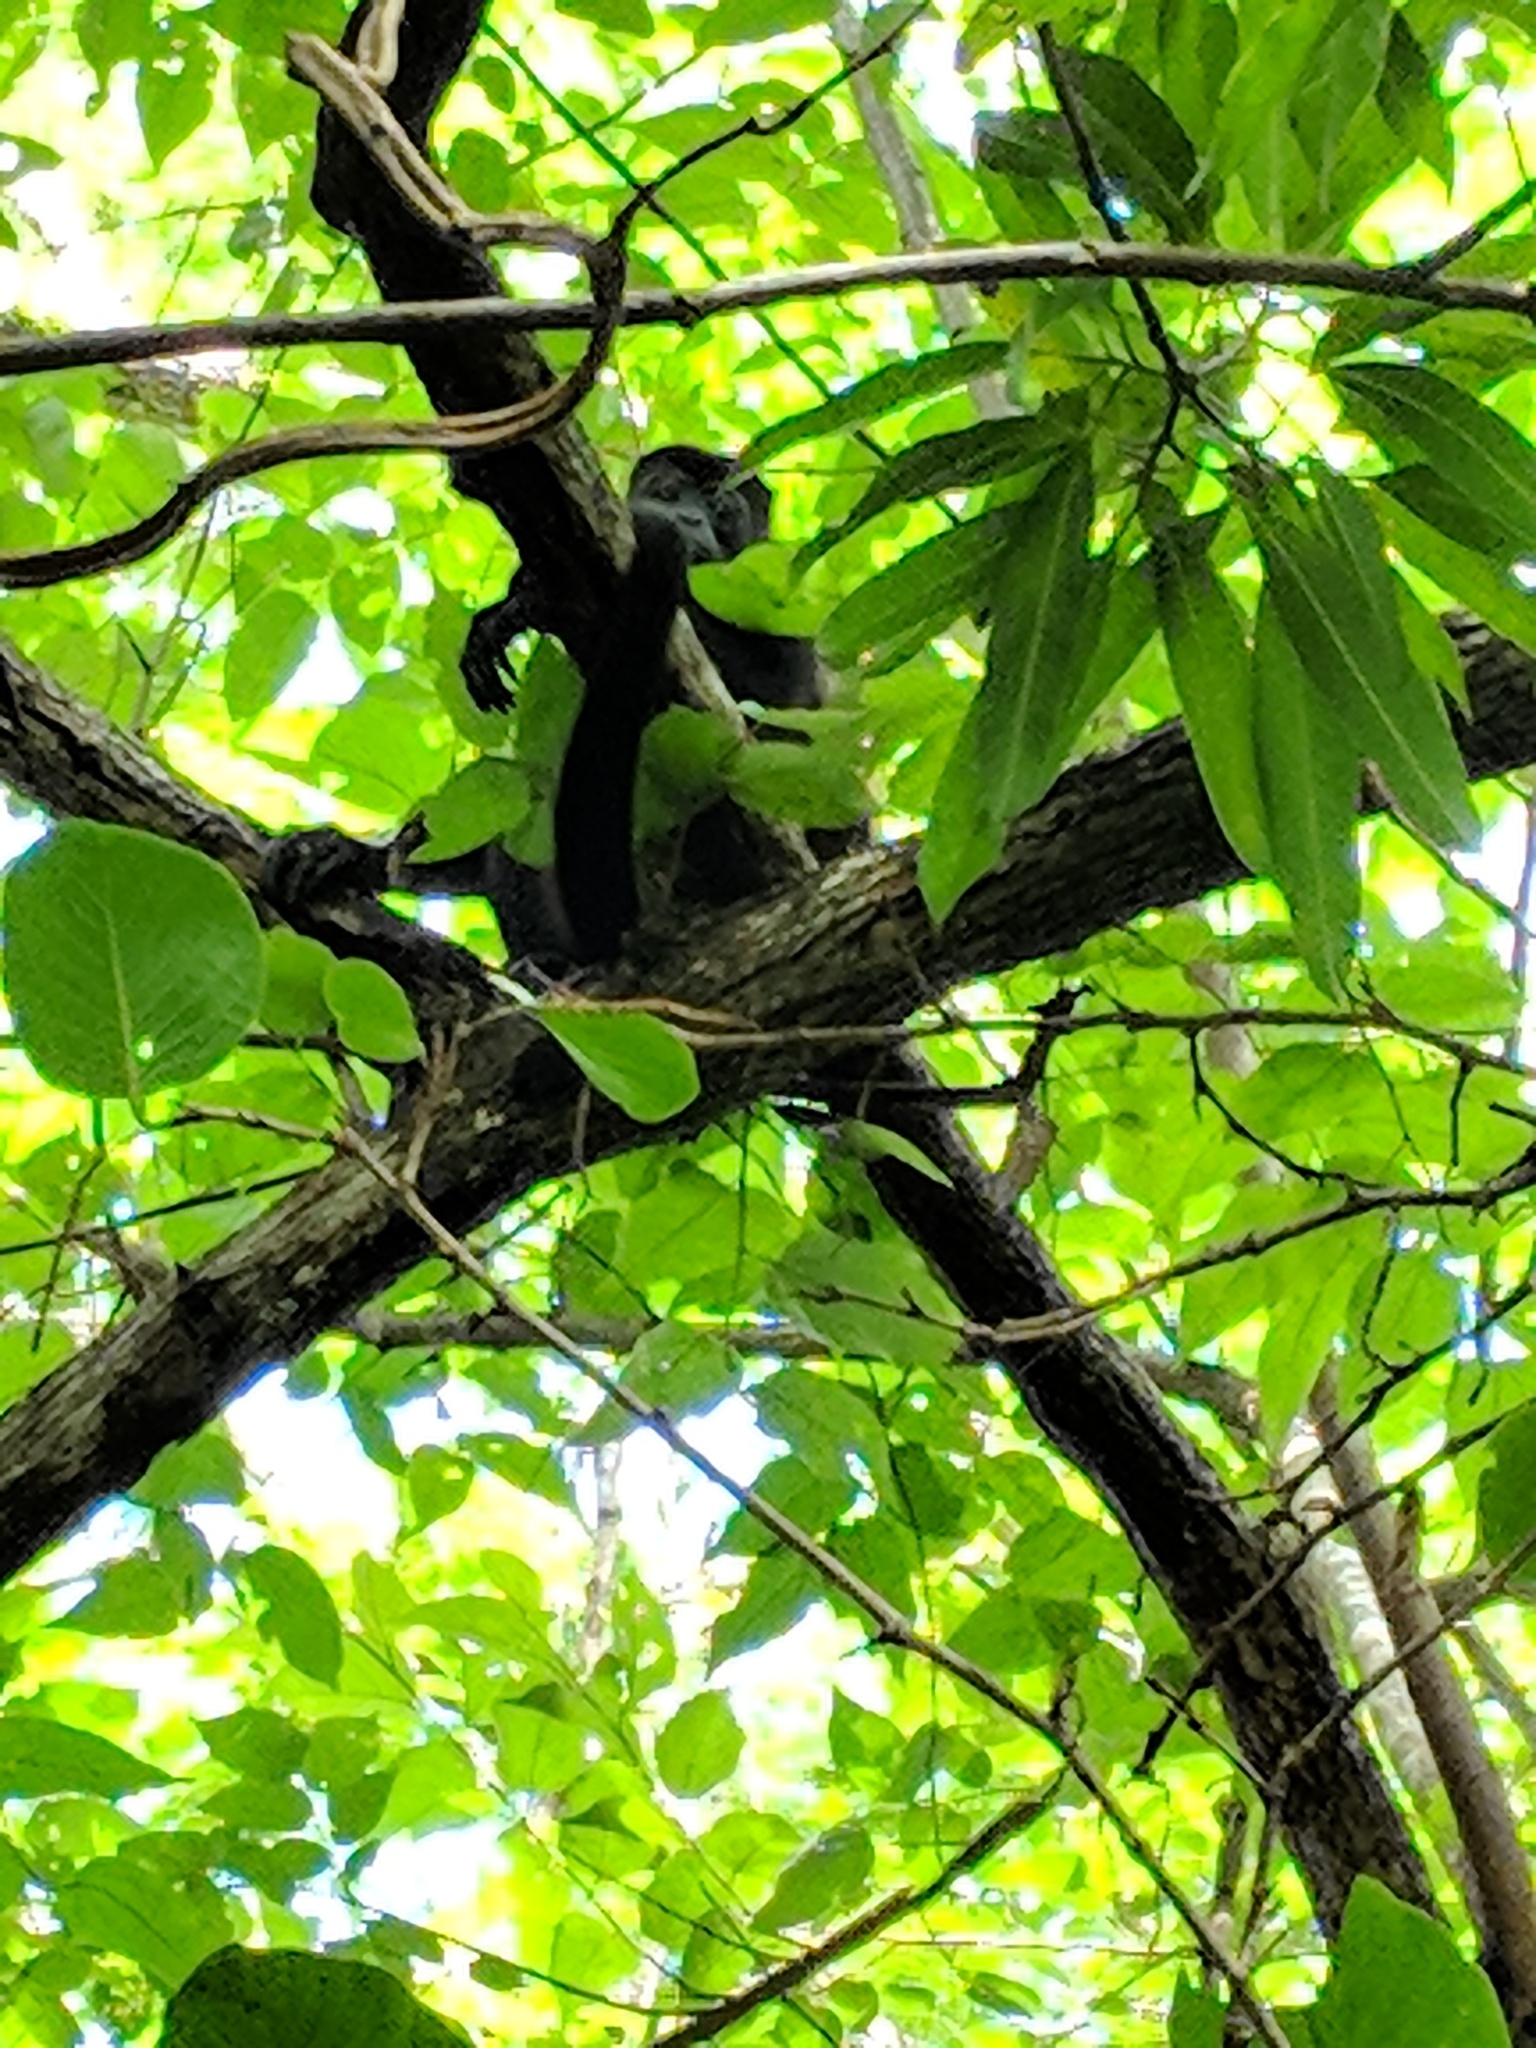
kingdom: Animalia
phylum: Chordata
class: Mammalia
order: Primates
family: Atelidae
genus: Alouatta
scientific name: Alouatta palliata
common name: Mantled howler
